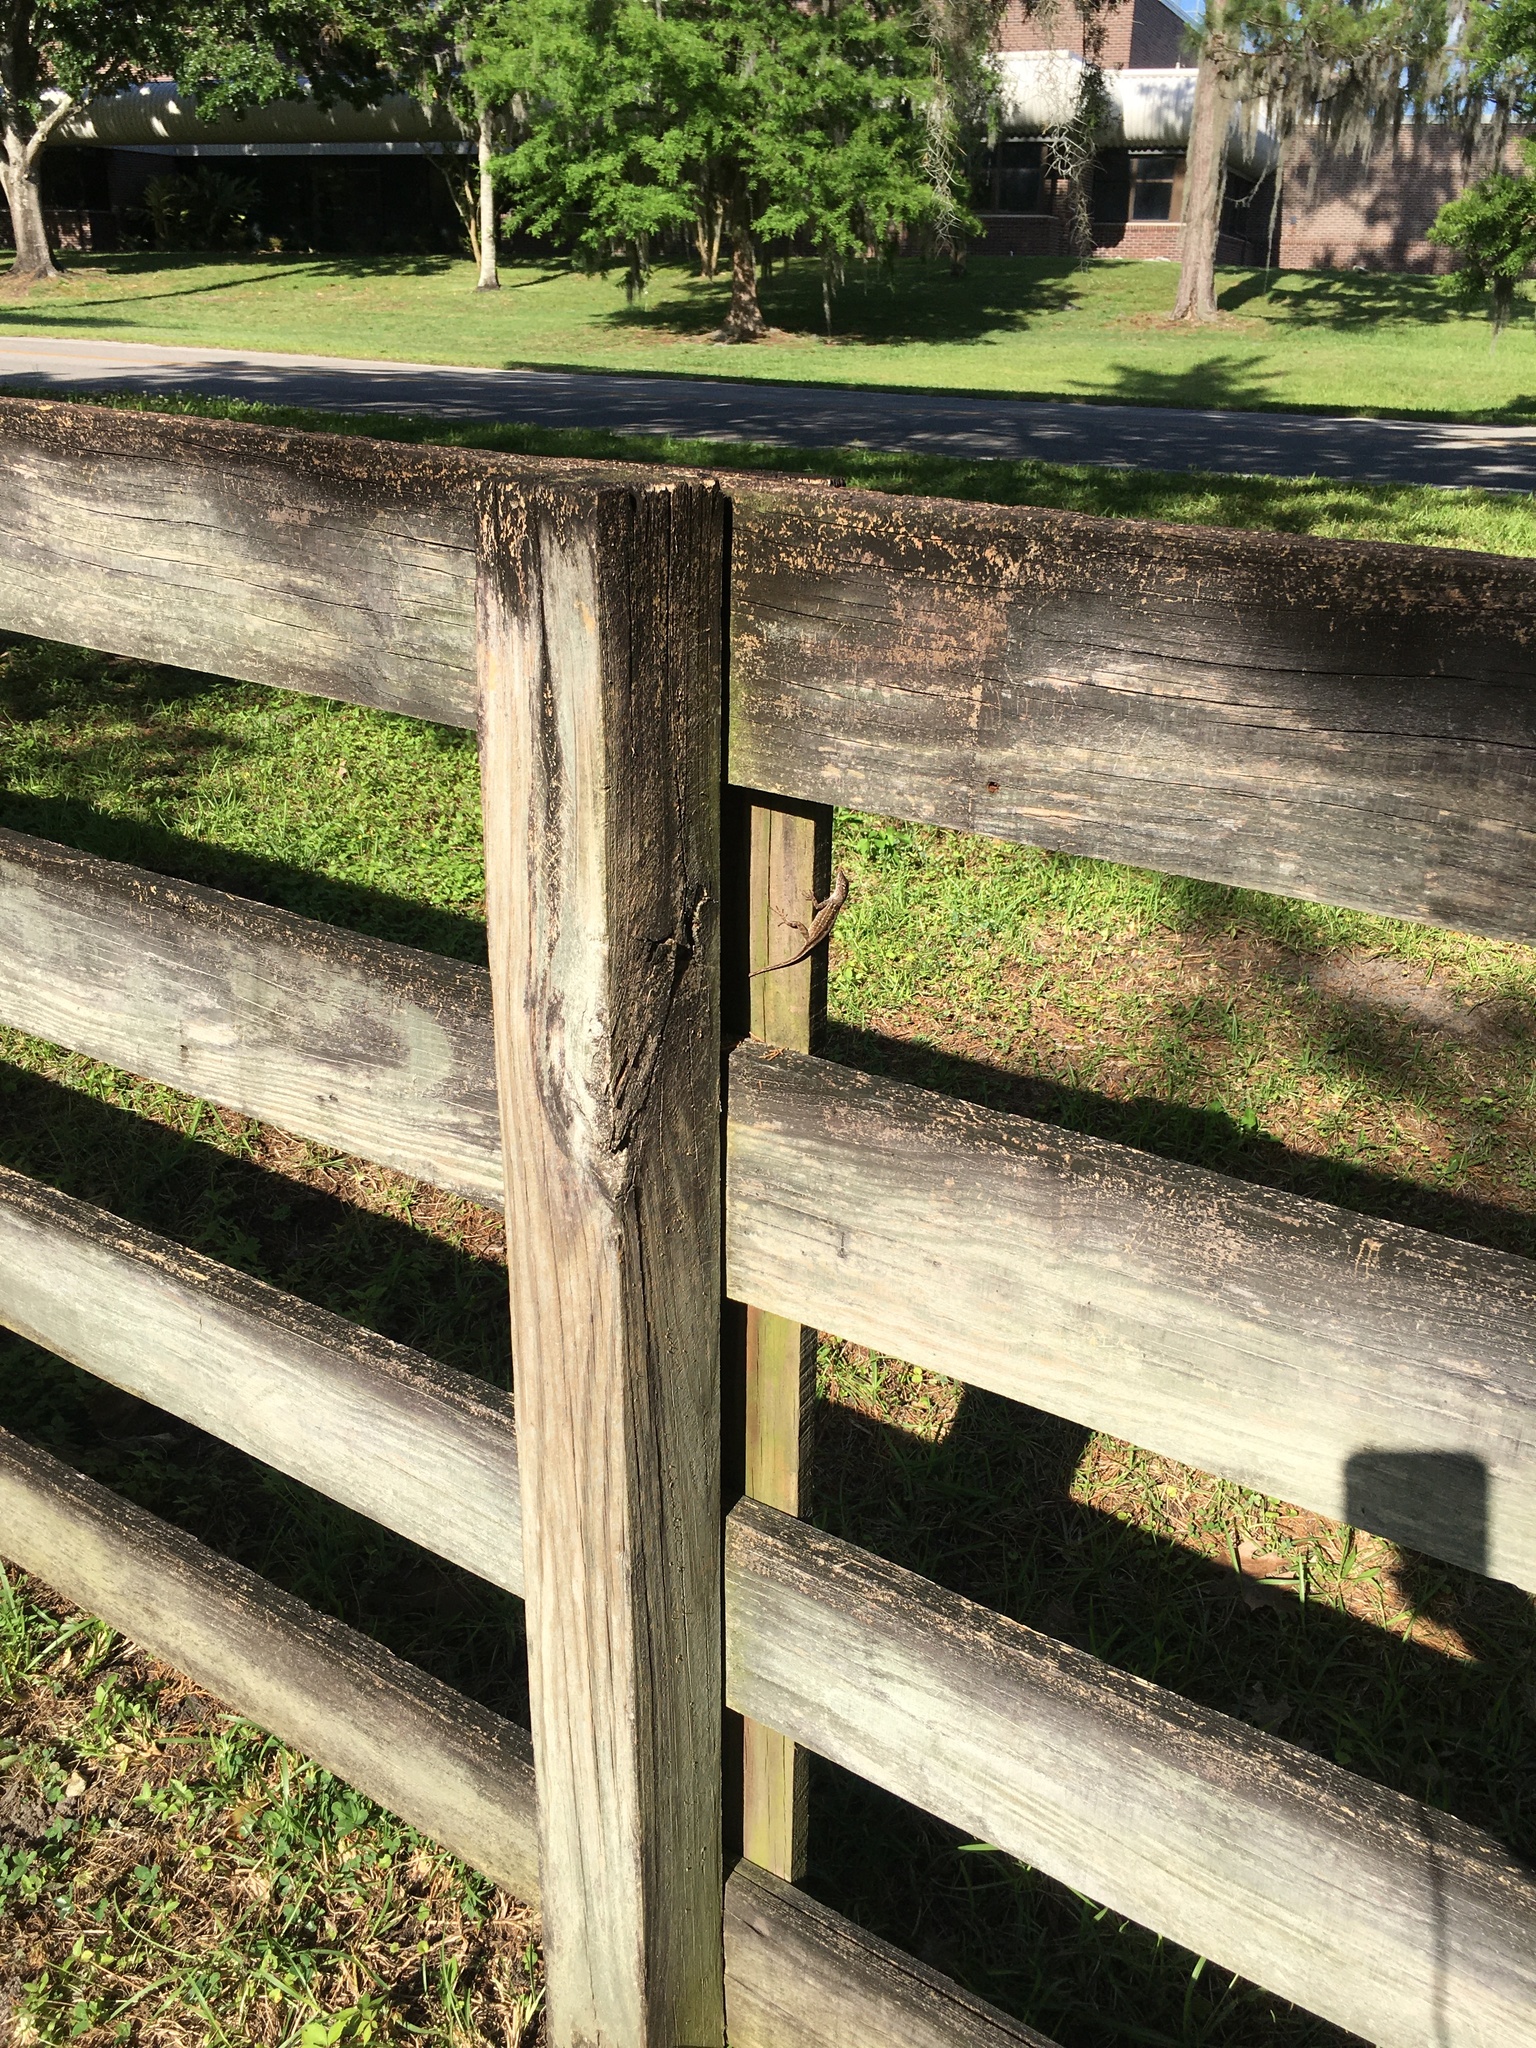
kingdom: Animalia
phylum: Chordata
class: Squamata
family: Dactyloidae
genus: Anolis
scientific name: Anolis sagrei
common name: Brown anole
